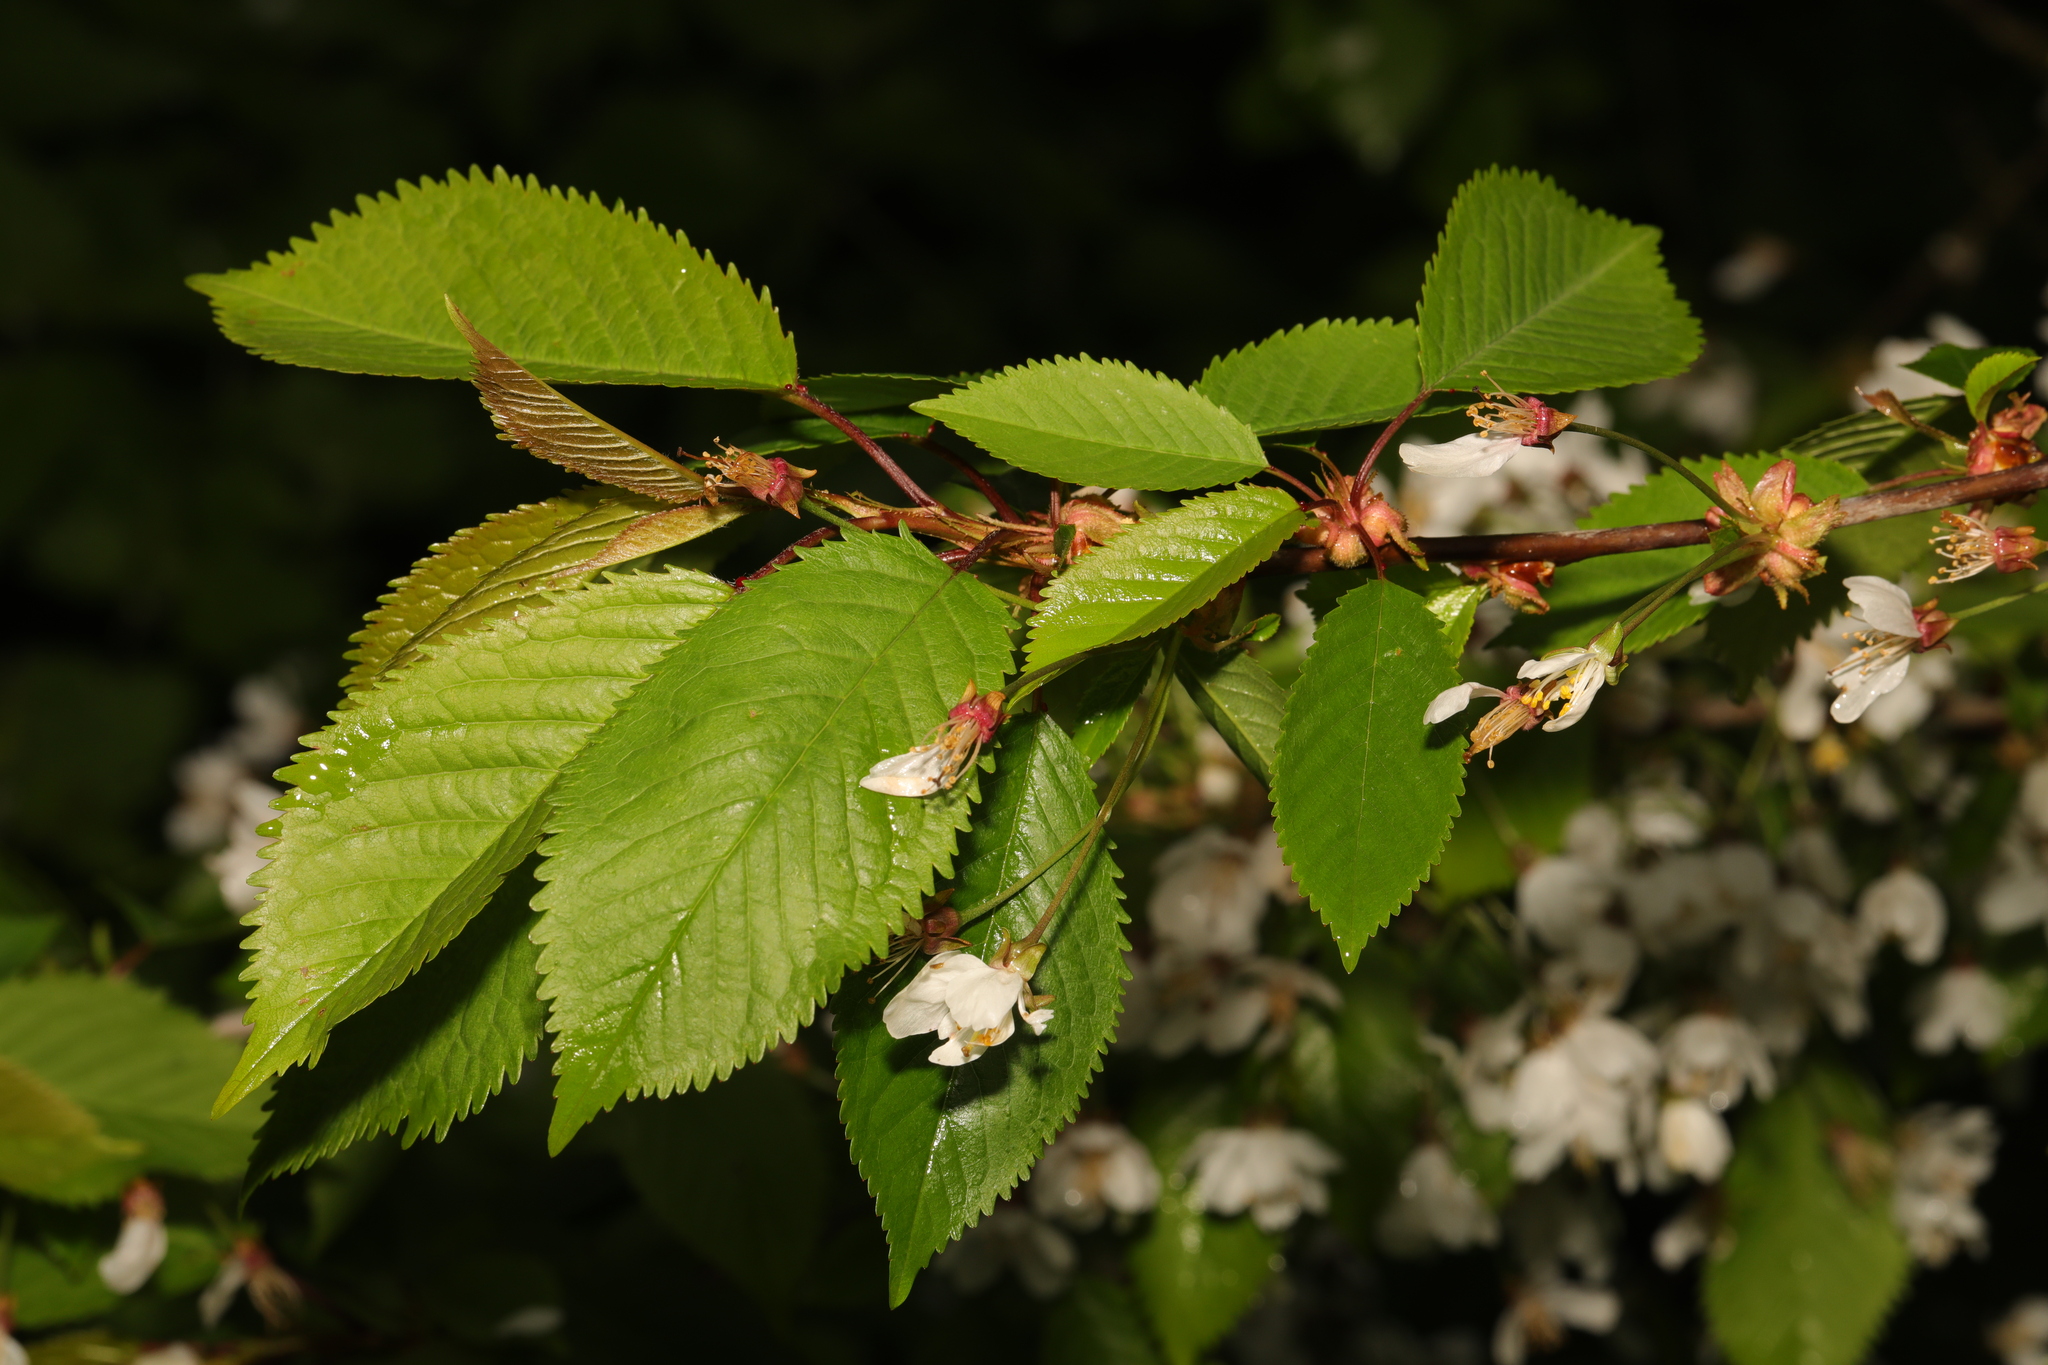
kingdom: Plantae
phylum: Tracheophyta
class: Magnoliopsida
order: Rosales
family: Rosaceae
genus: Prunus
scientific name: Prunus avium
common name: Sweet cherry
